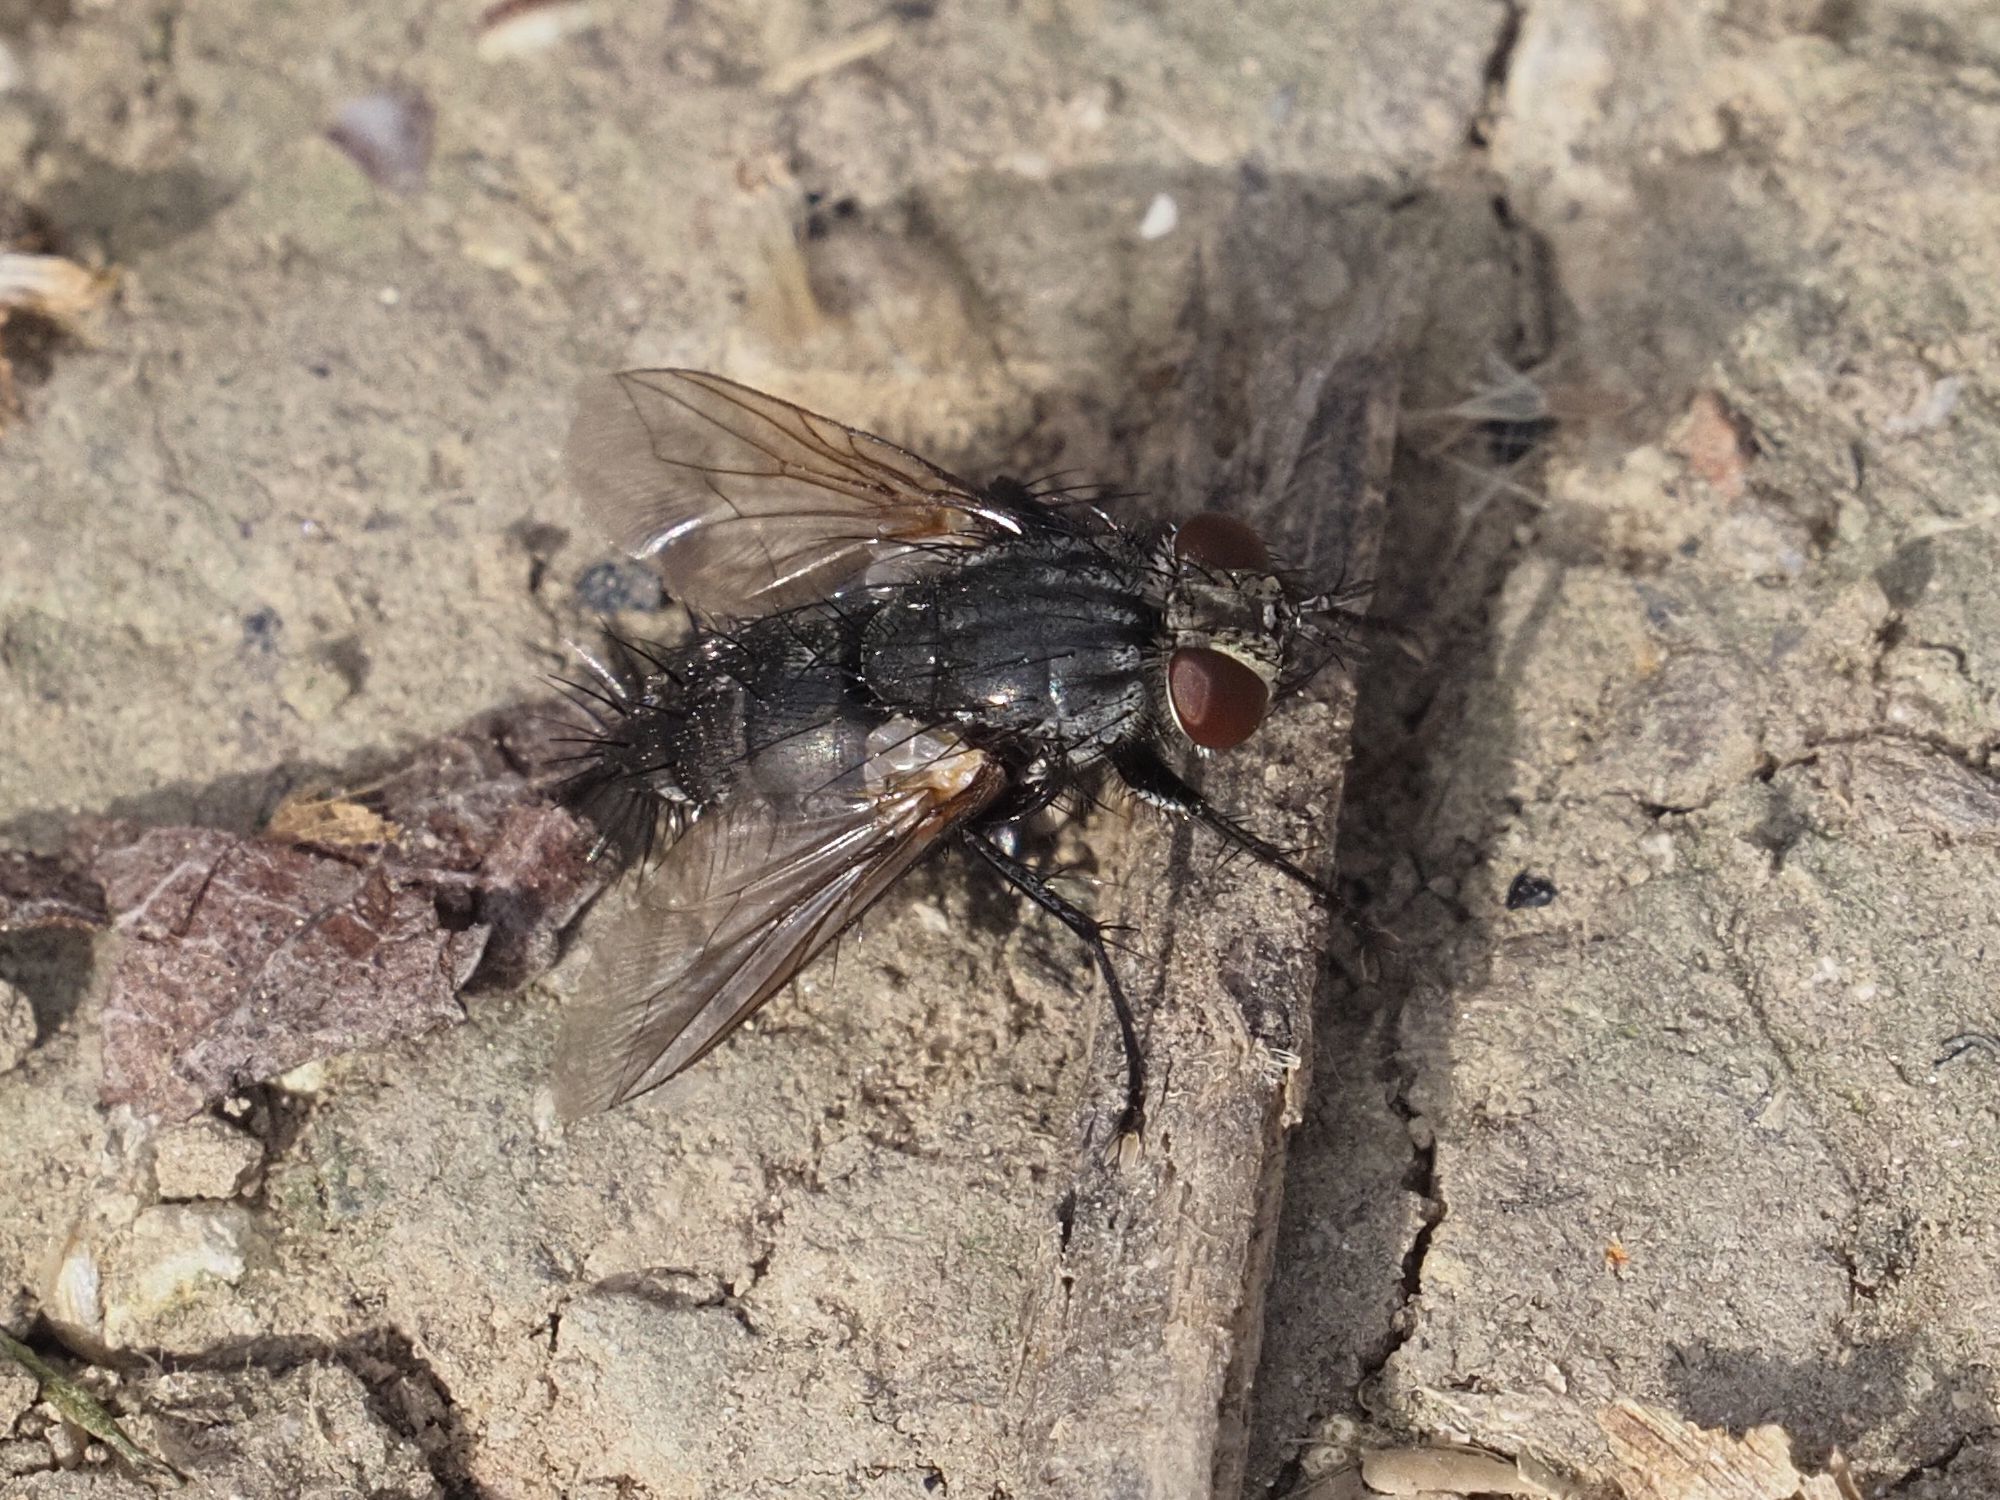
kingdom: Animalia
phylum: Arthropoda
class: Insecta
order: Diptera
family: Tachinidae
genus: Voria
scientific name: Voria ruralis
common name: Parasitic fly
